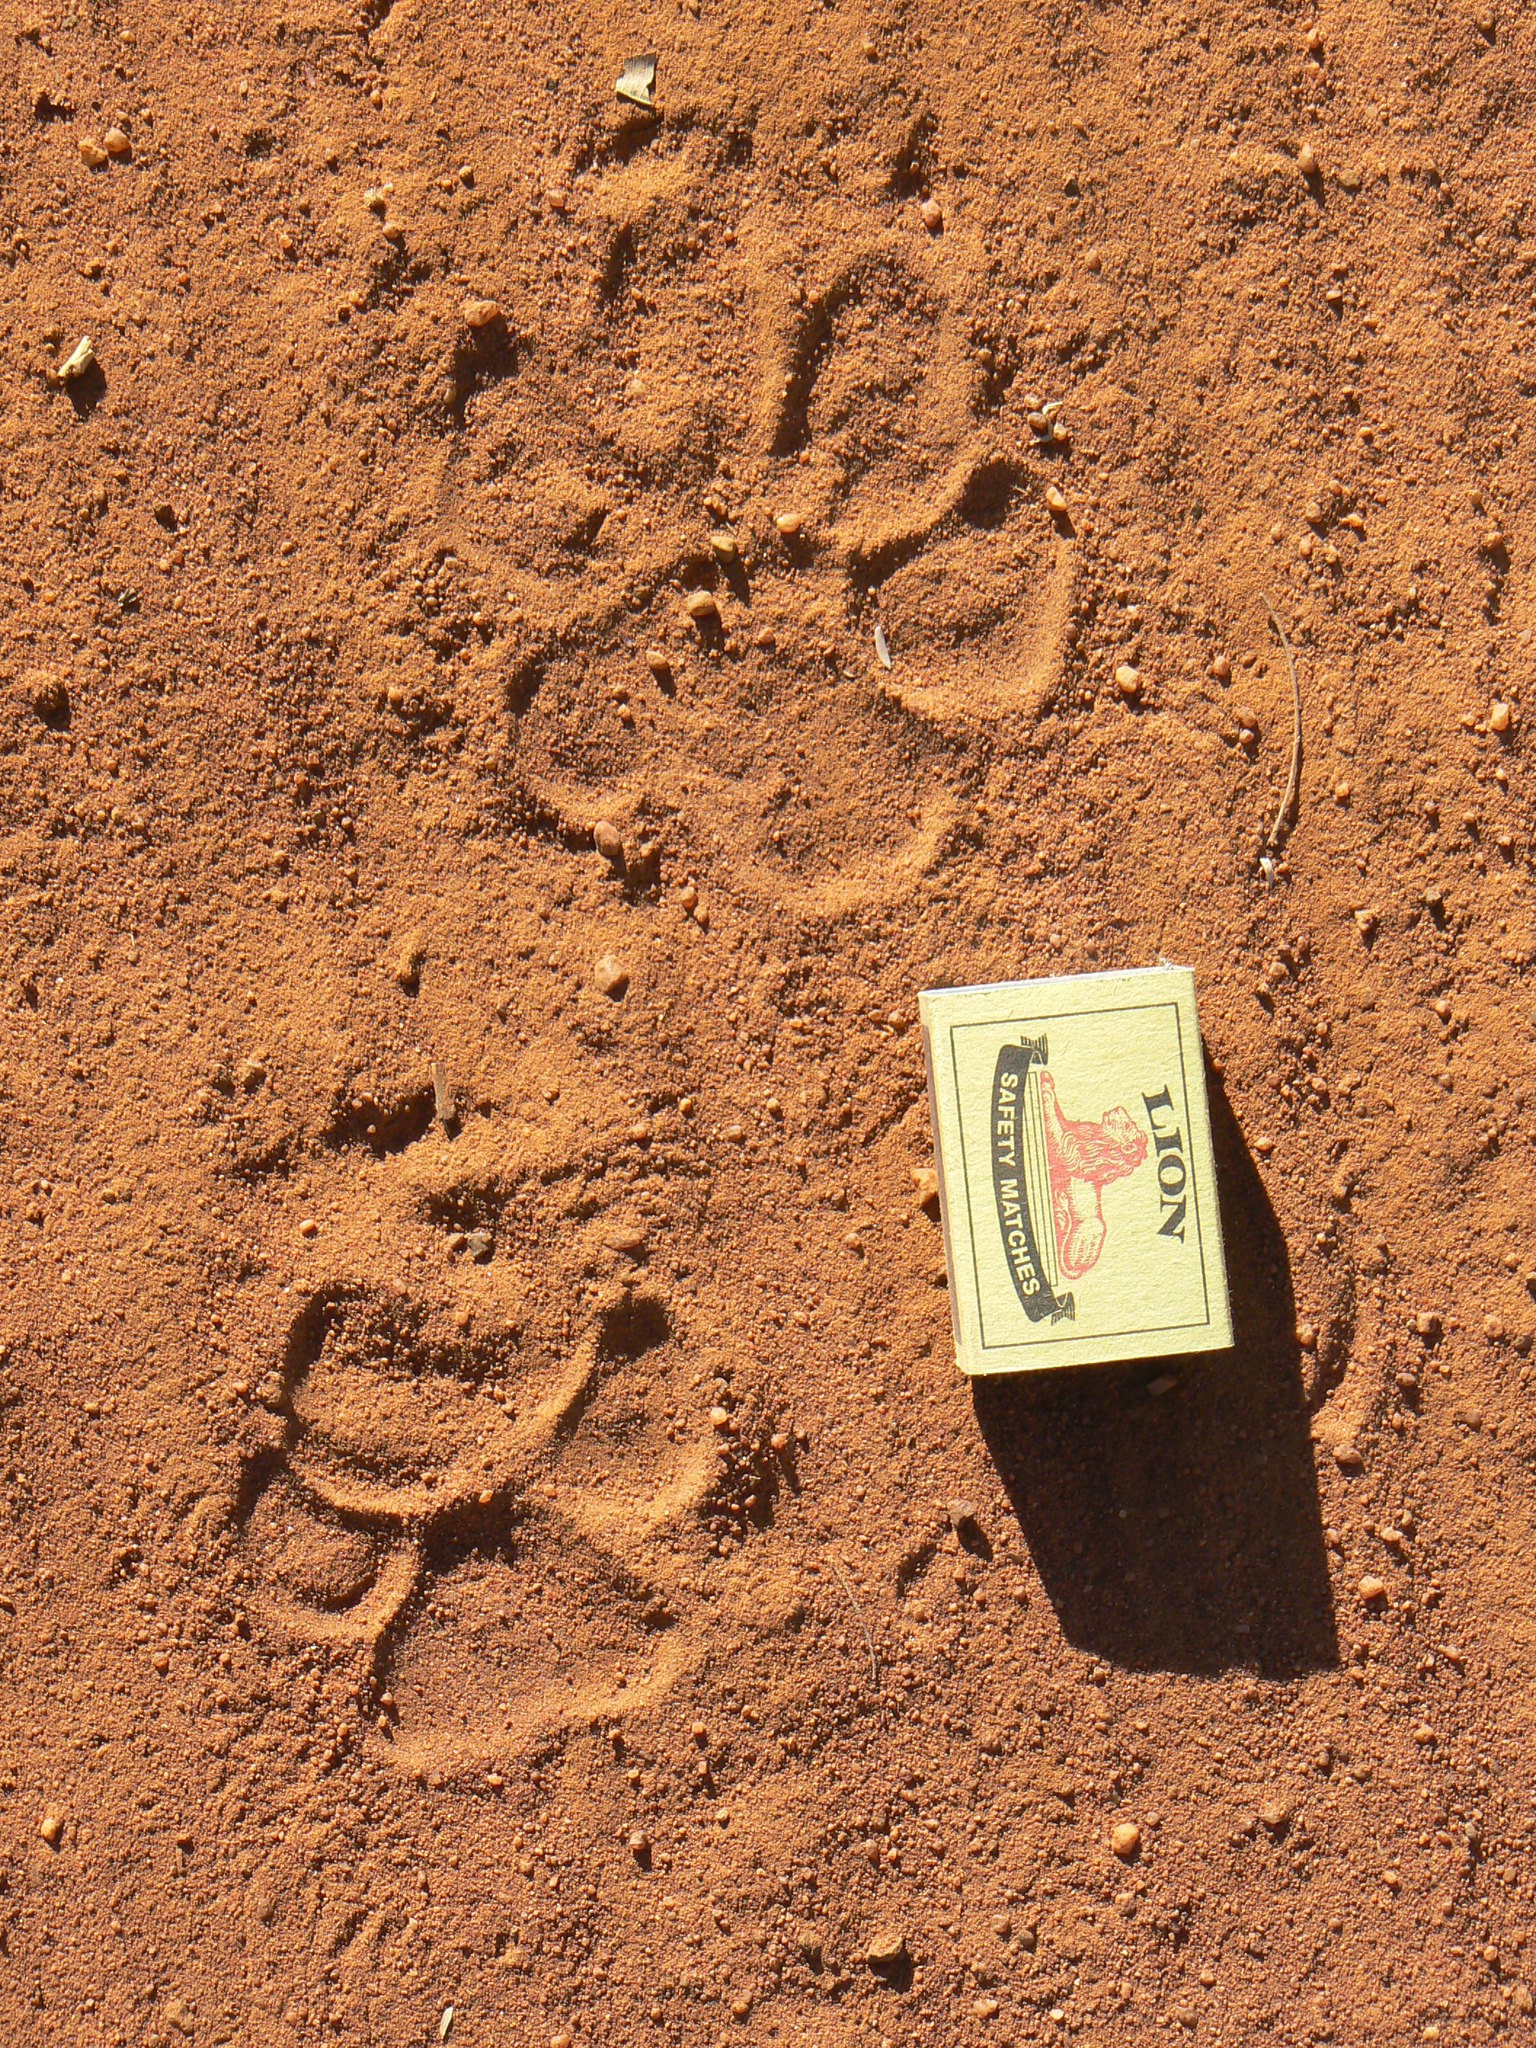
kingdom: Animalia
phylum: Chordata
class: Mammalia
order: Carnivora
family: Hyaenidae
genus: Hyaena
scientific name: Hyaena brunnea
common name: Brown hyena
